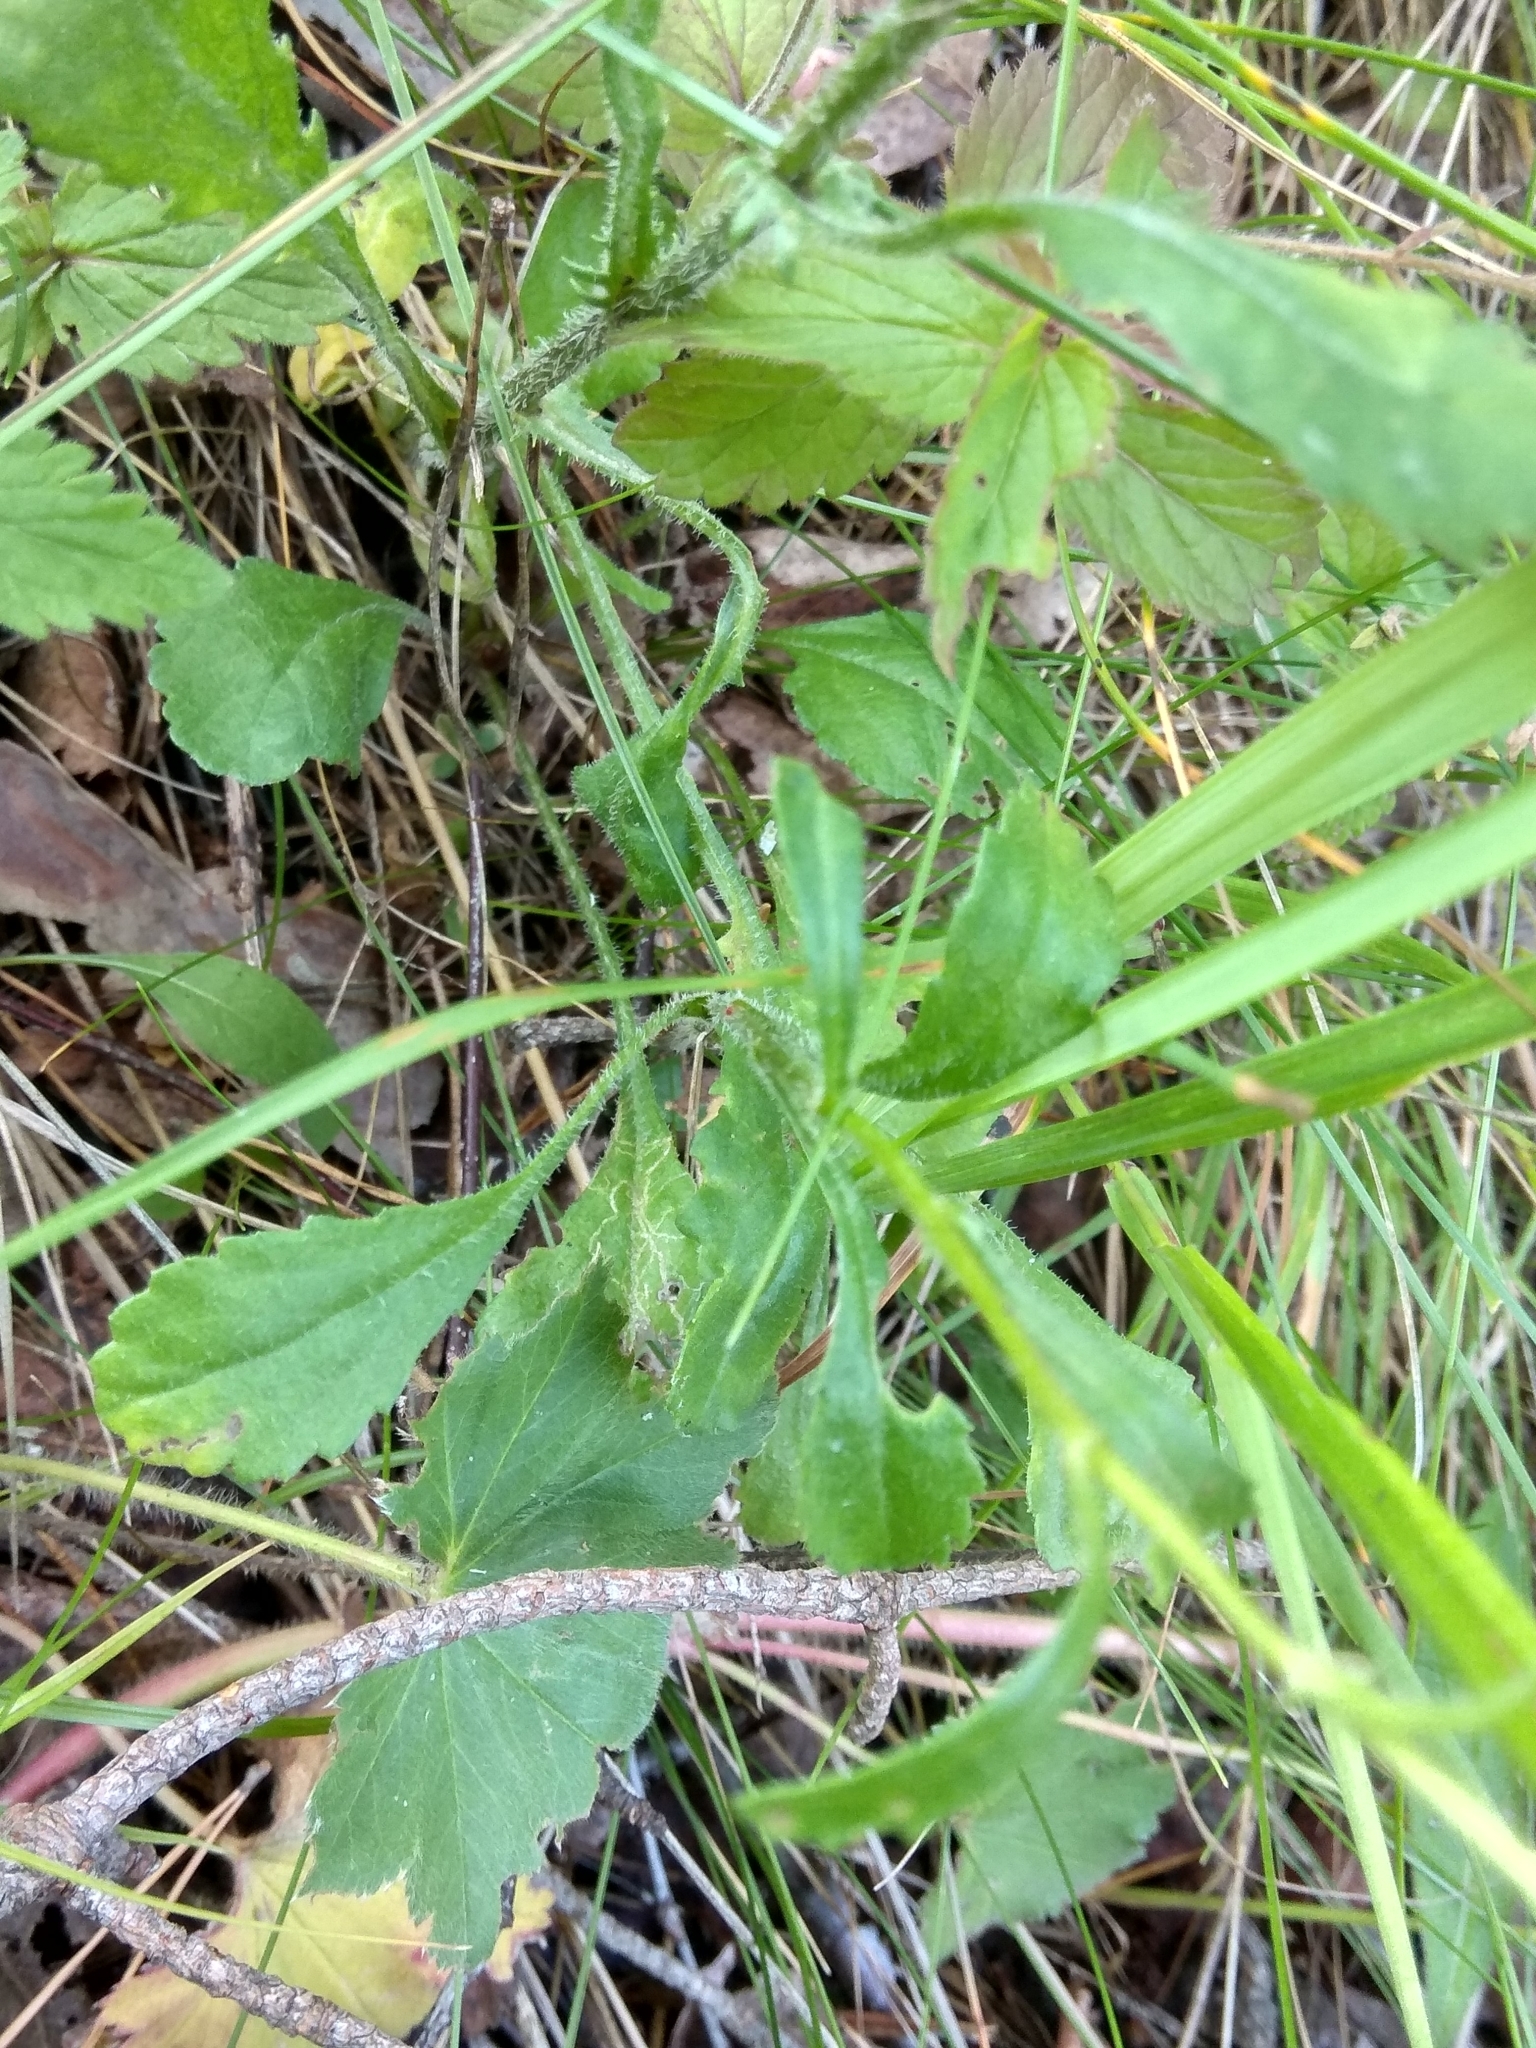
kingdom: Plantae
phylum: Tracheophyta
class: Magnoliopsida
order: Asterales
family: Asteraceae
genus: Leucanthemum
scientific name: Leucanthemum vulgare
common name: Oxeye daisy
